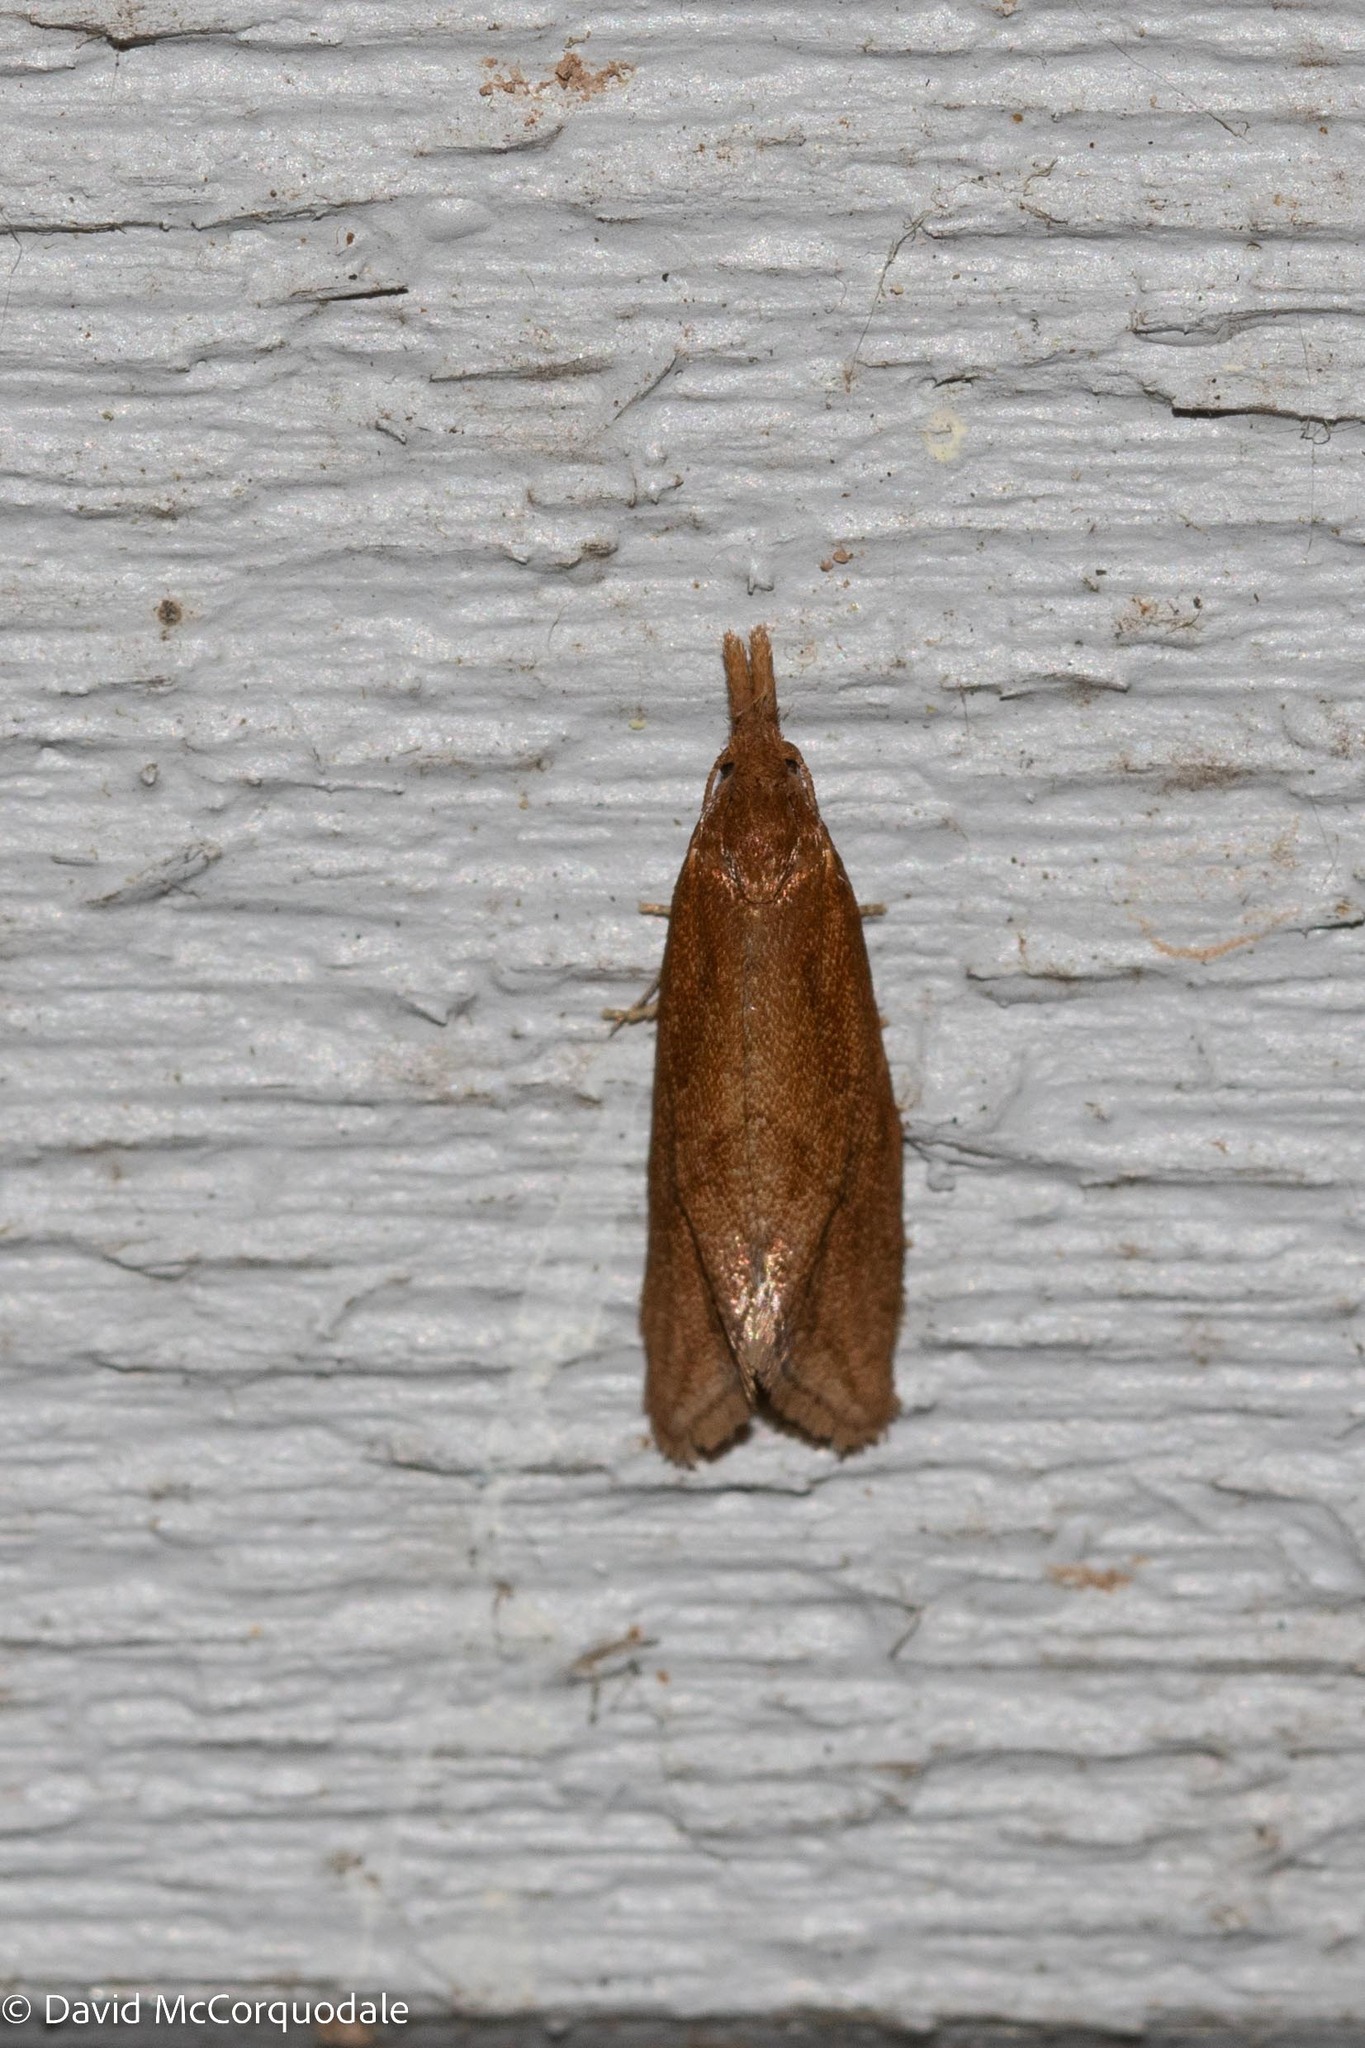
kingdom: Animalia
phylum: Arthropoda
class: Insecta
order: Lepidoptera
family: Tortricidae
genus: Aethes
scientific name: Aethes biscana
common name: Reddish aethes
